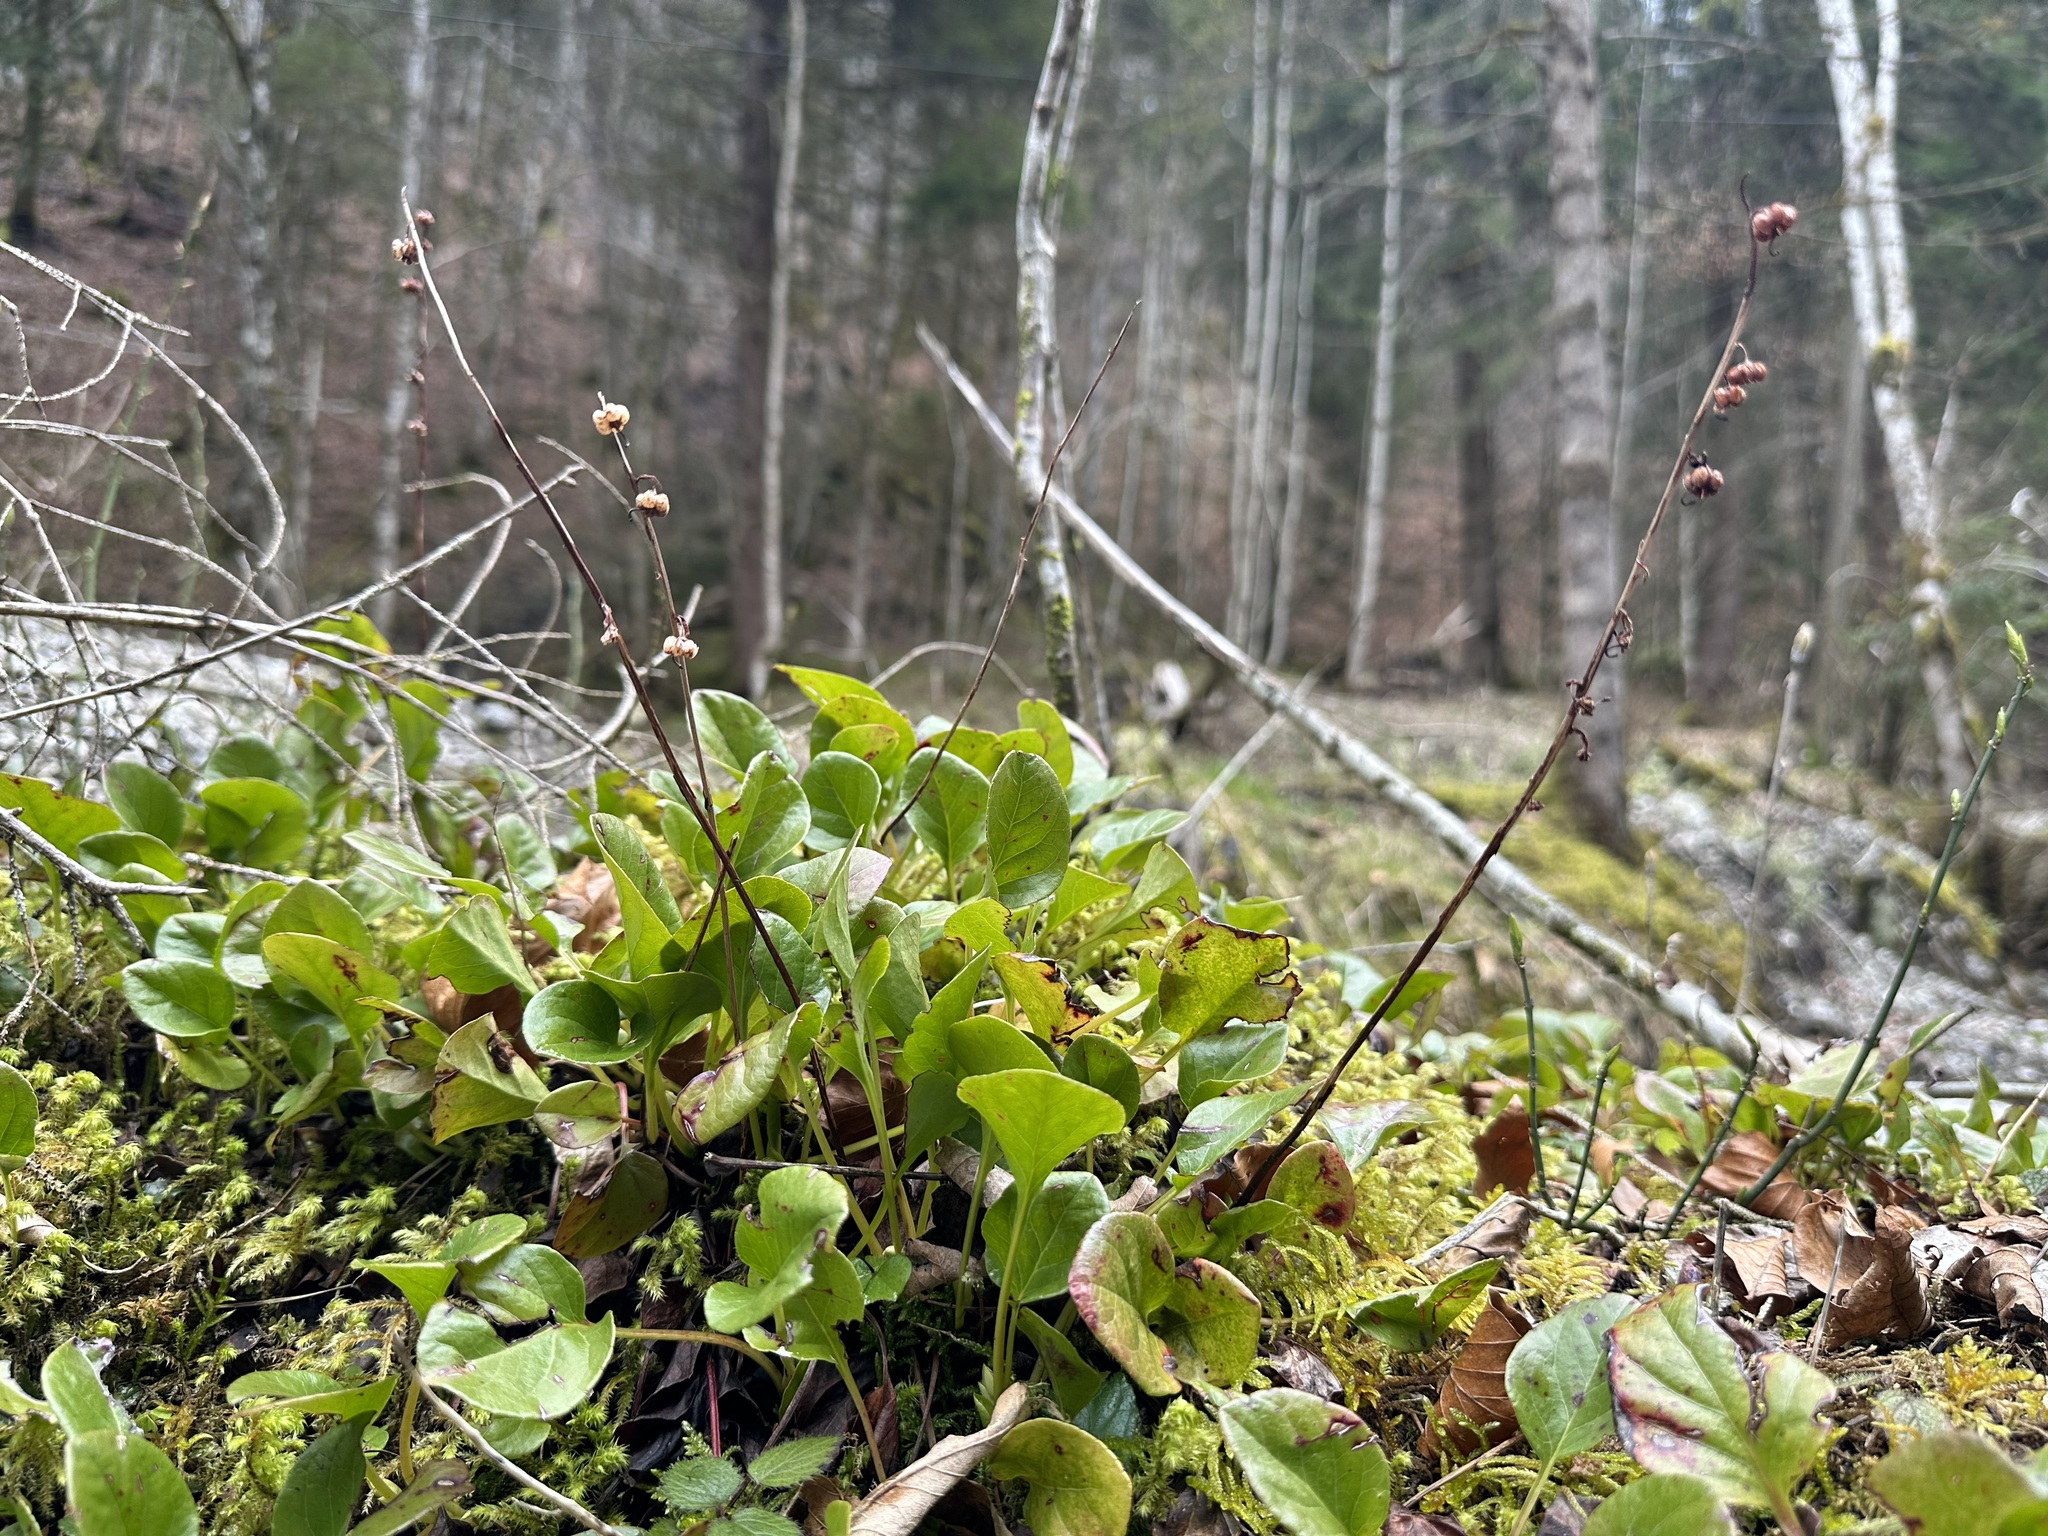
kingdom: Plantae
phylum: Tracheophyta
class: Magnoliopsida
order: Ericales
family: Ericaceae
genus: Pyrola
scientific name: Pyrola rotundifolia
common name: Round-leaved wintergreen
